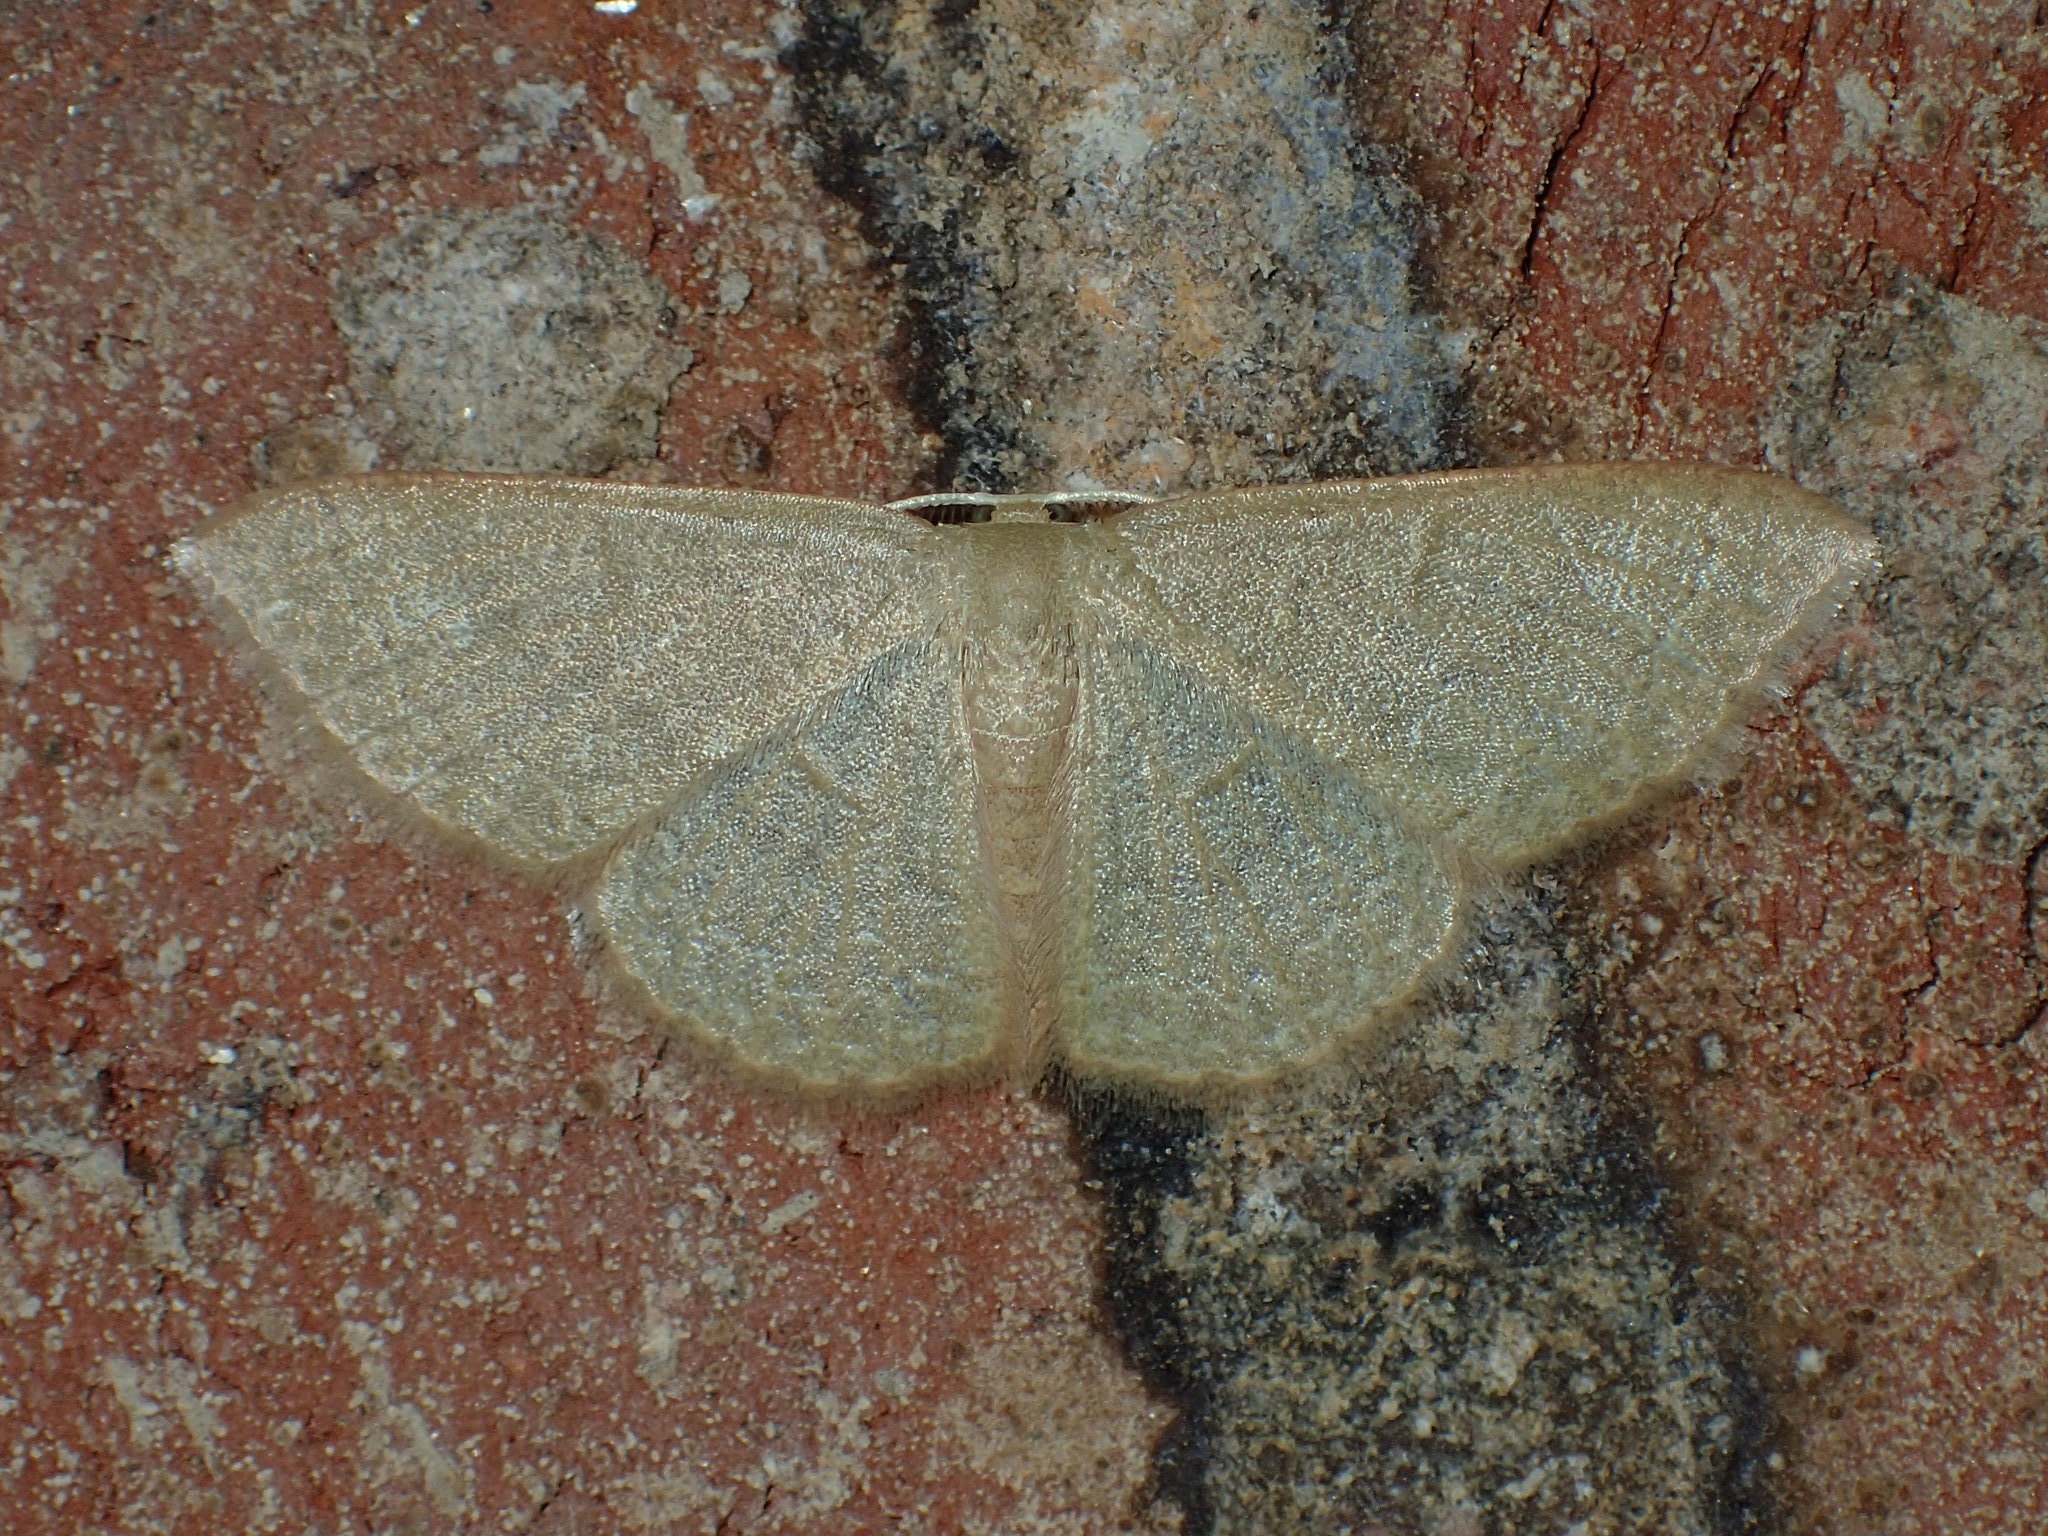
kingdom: Animalia
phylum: Arthropoda
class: Insecta
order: Lepidoptera
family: Geometridae
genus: Pleuroprucha
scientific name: Pleuroprucha insulsaria
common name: Common tan wave
